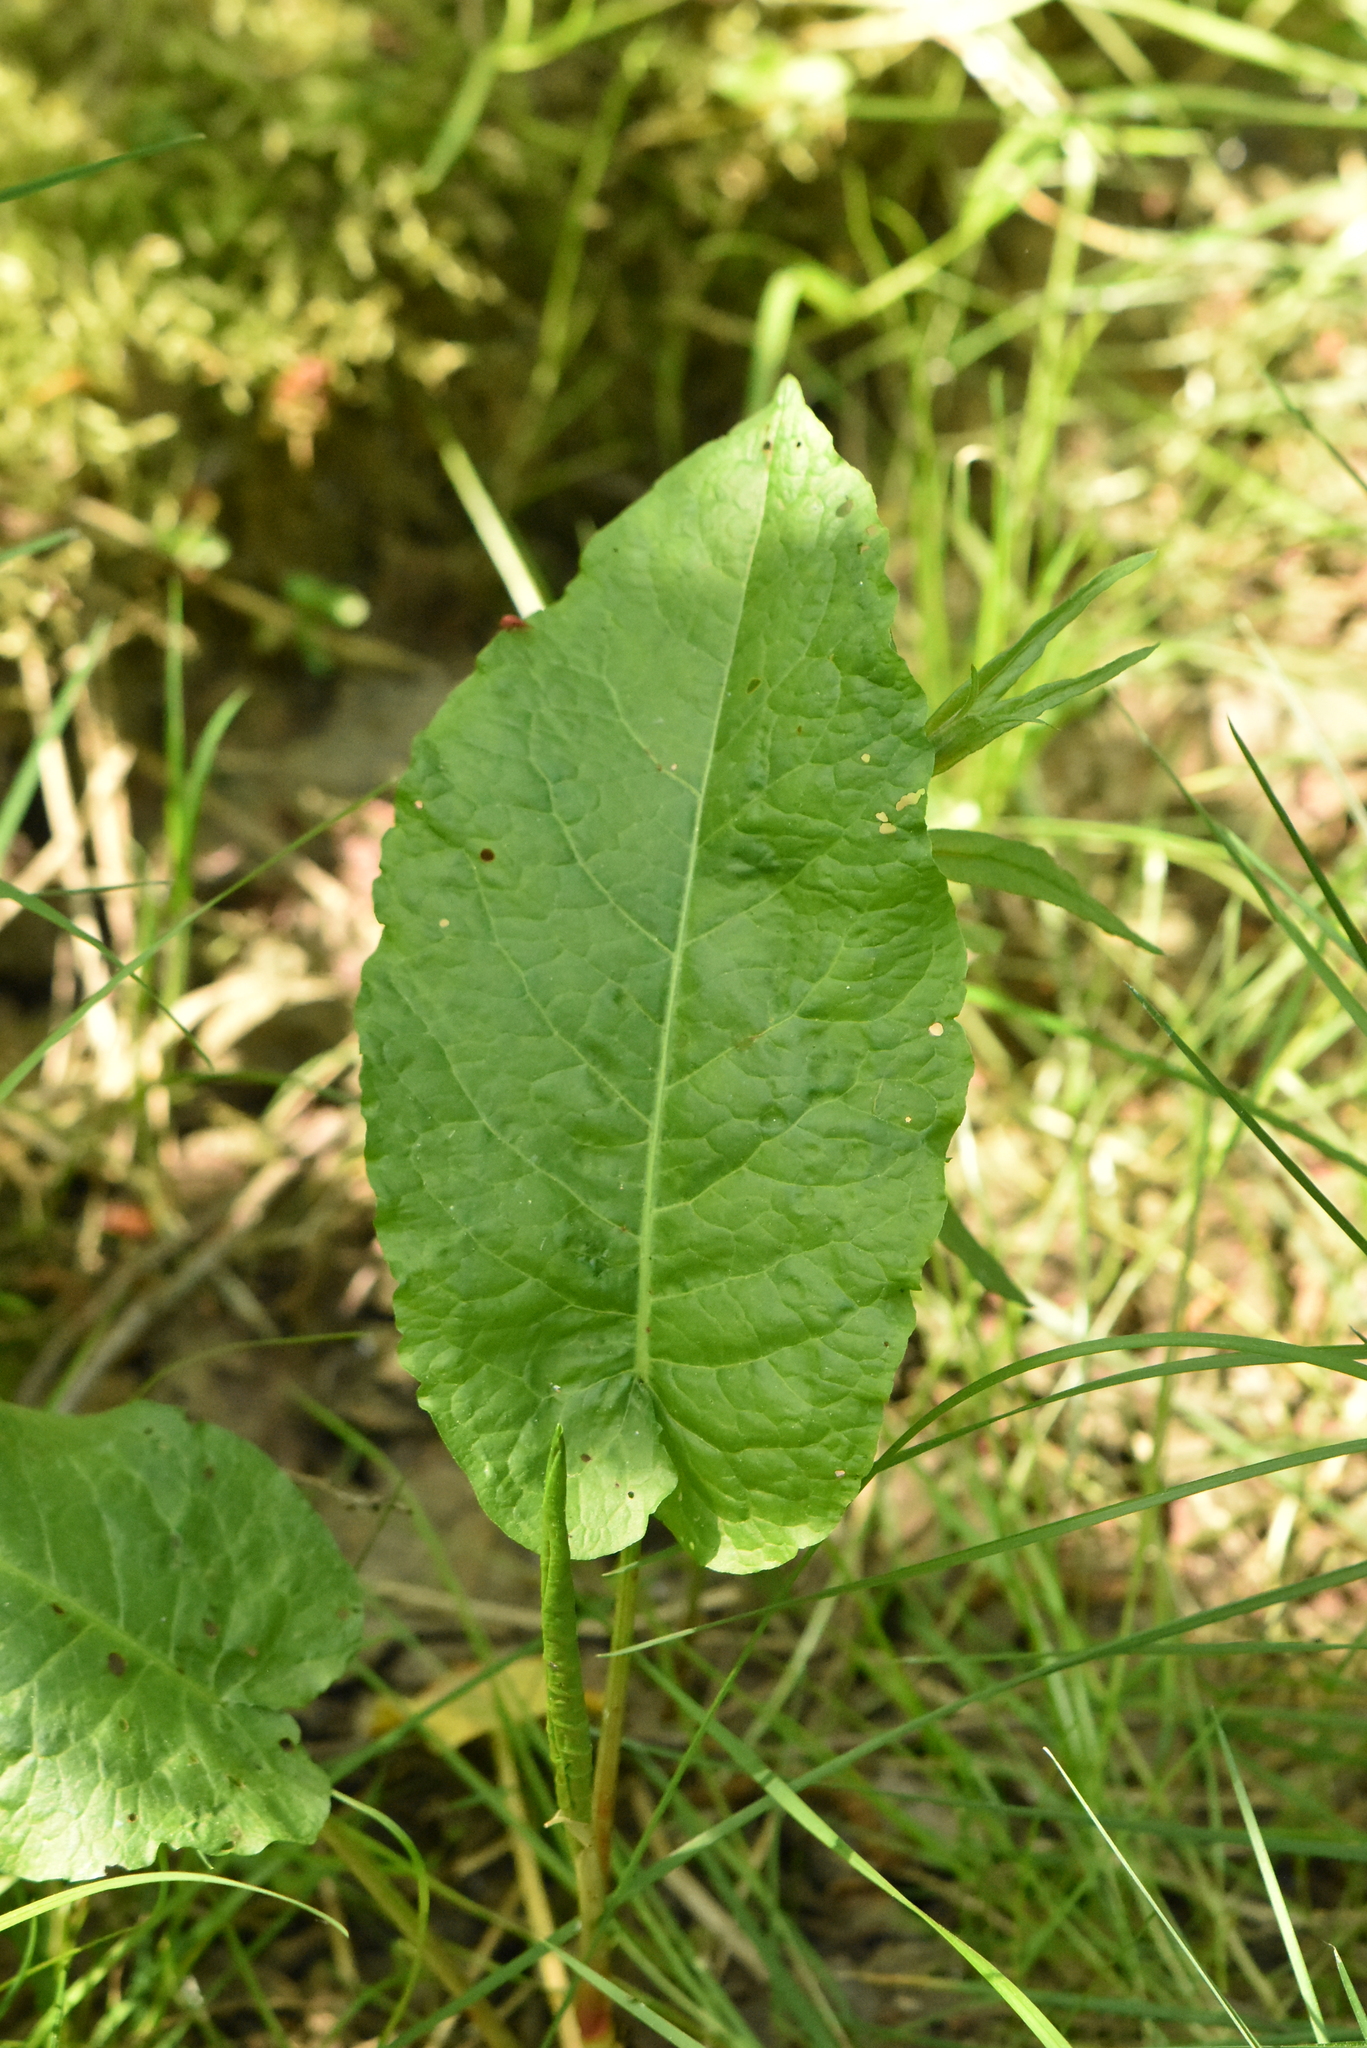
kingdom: Plantae
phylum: Tracheophyta
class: Magnoliopsida
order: Caryophyllales
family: Polygonaceae
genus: Rumex
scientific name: Rumex obtusifolius
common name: Bitter dock
